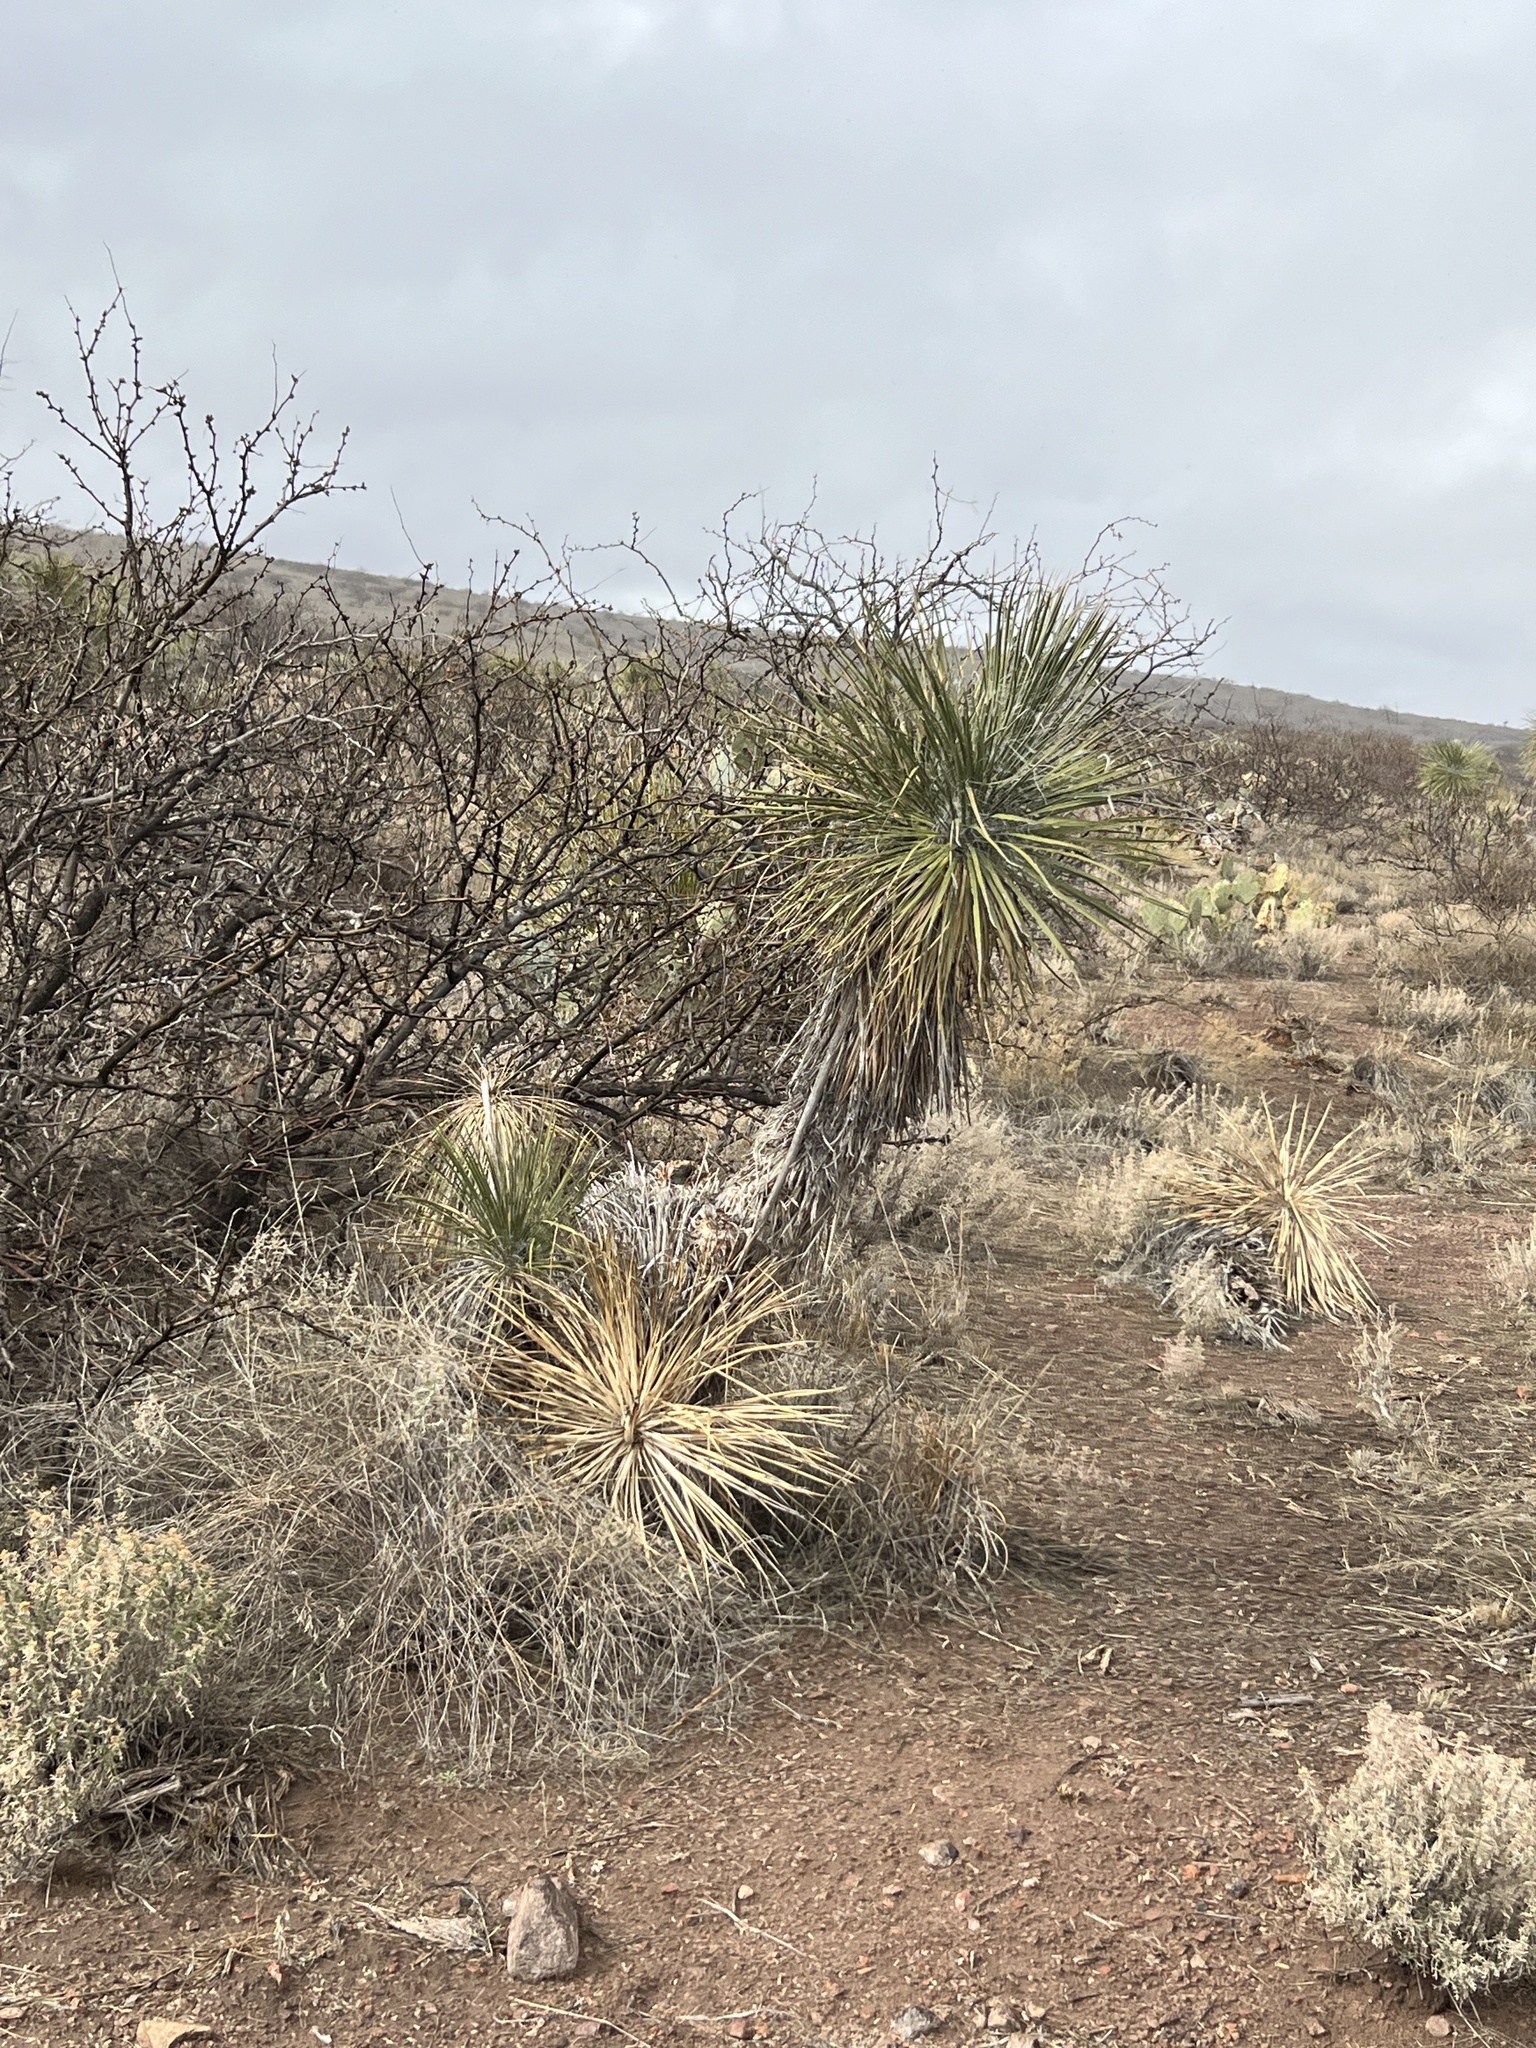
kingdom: Plantae
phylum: Tracheophyta
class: Liliopsida
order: Asparagales
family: Asparagaceae
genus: Yucca
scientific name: Yucca elata
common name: Palmella
